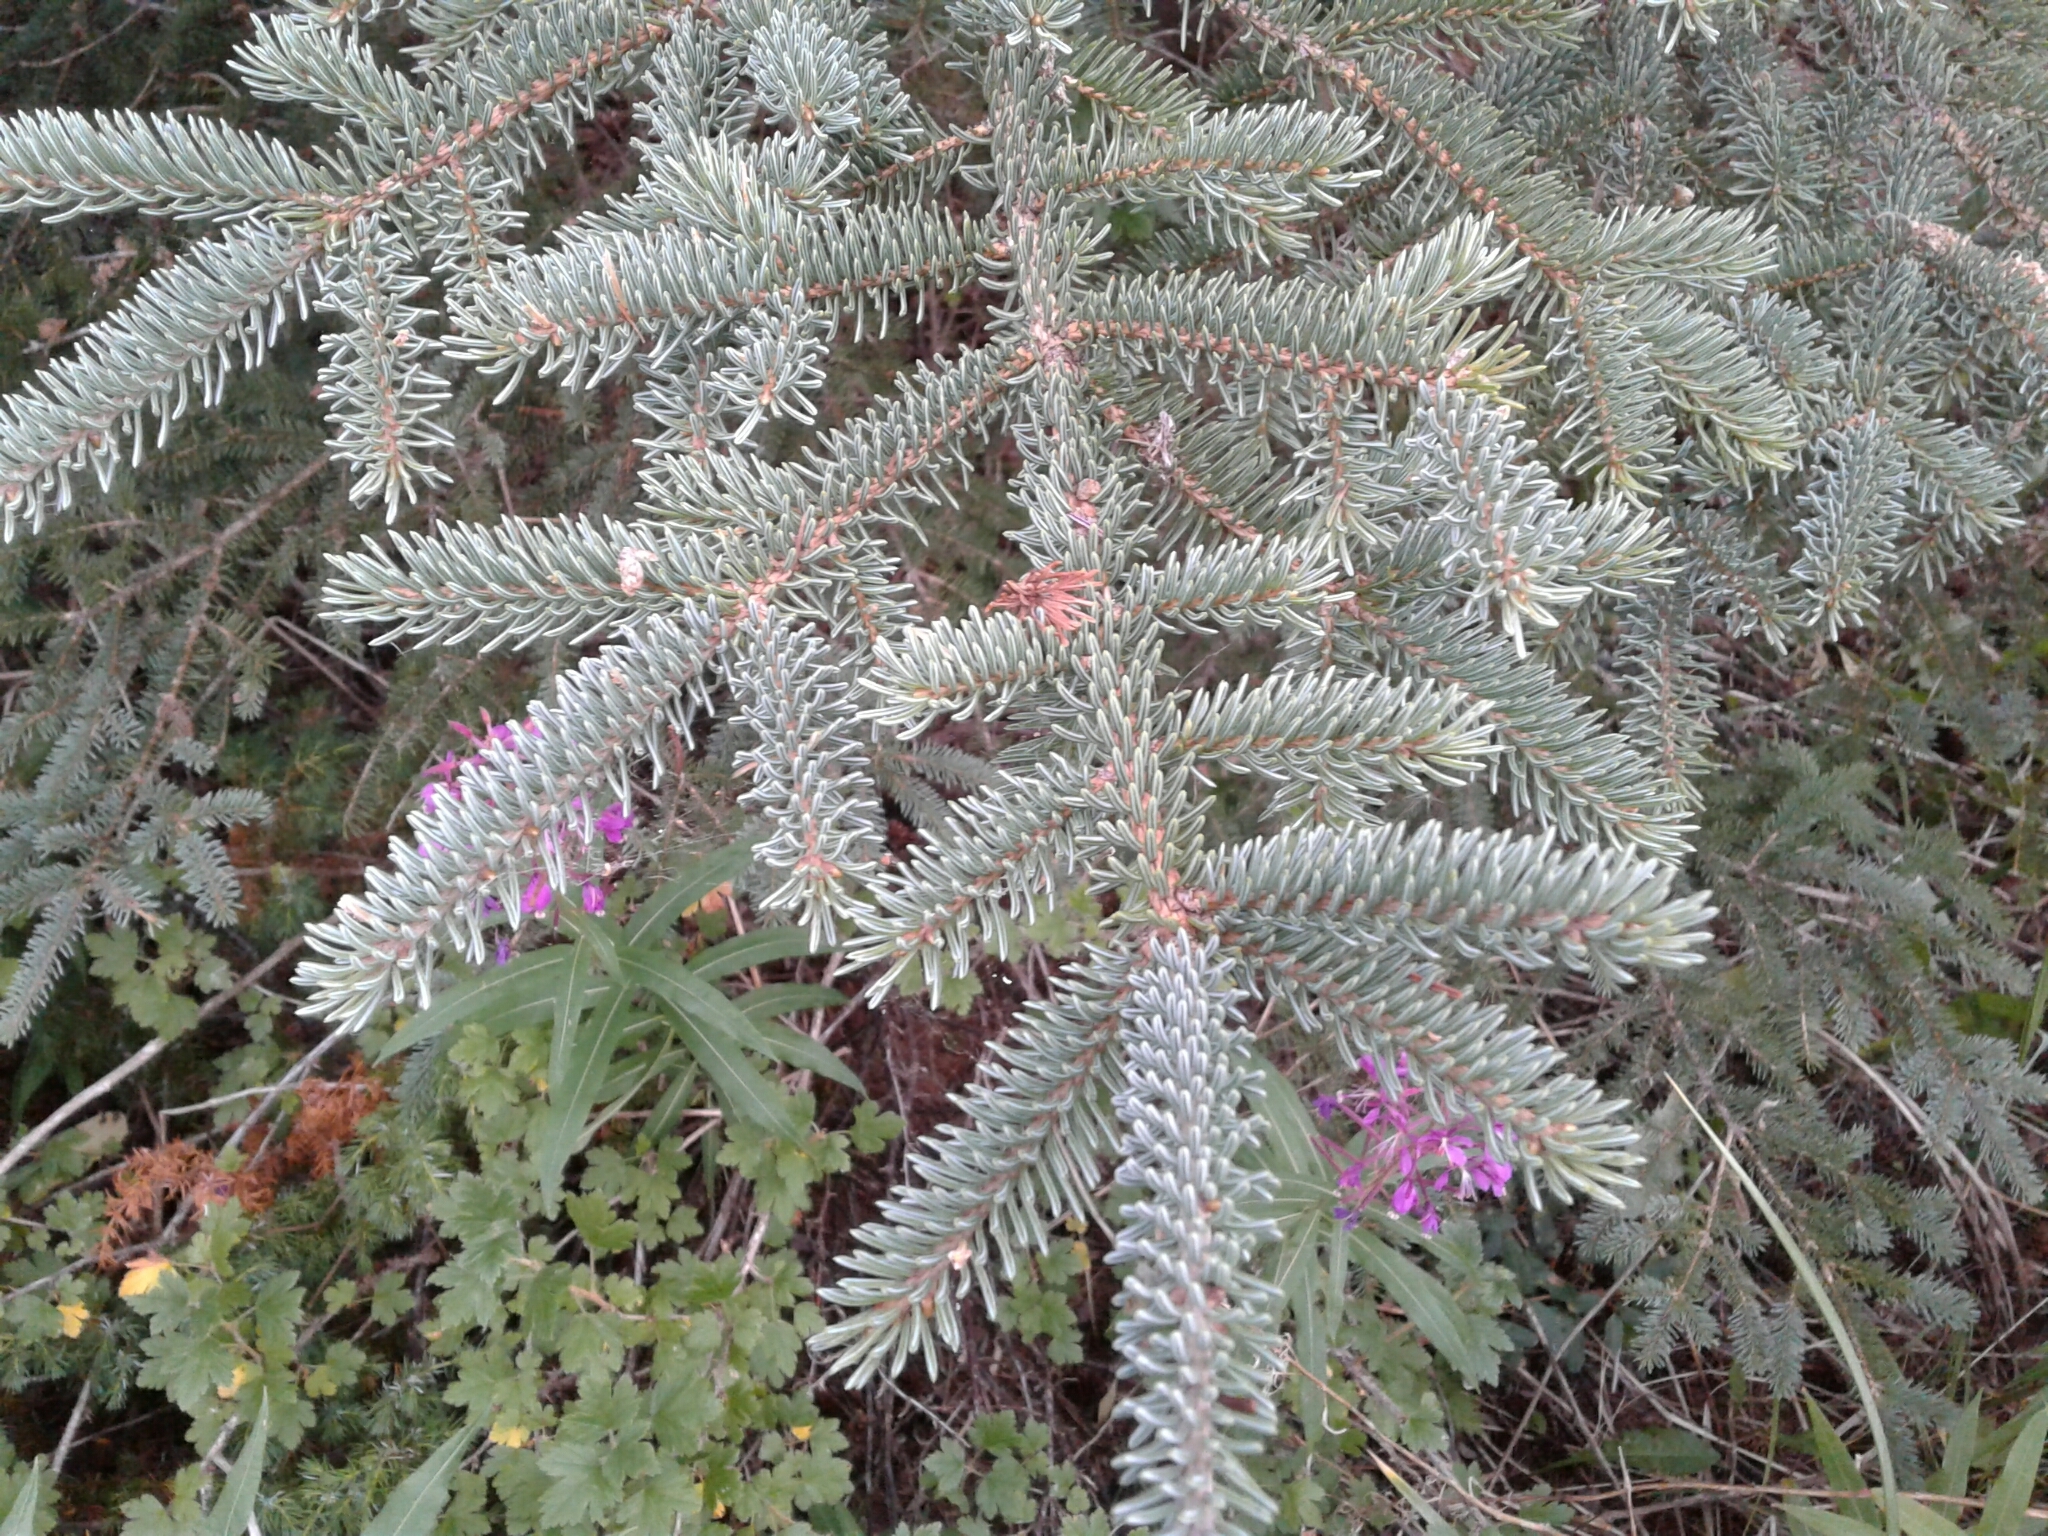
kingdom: Plantae
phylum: Tracheophyta
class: Pinopsida
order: Pinales
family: Pinaceae
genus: Picea
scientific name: Picea glauca
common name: White spruce
